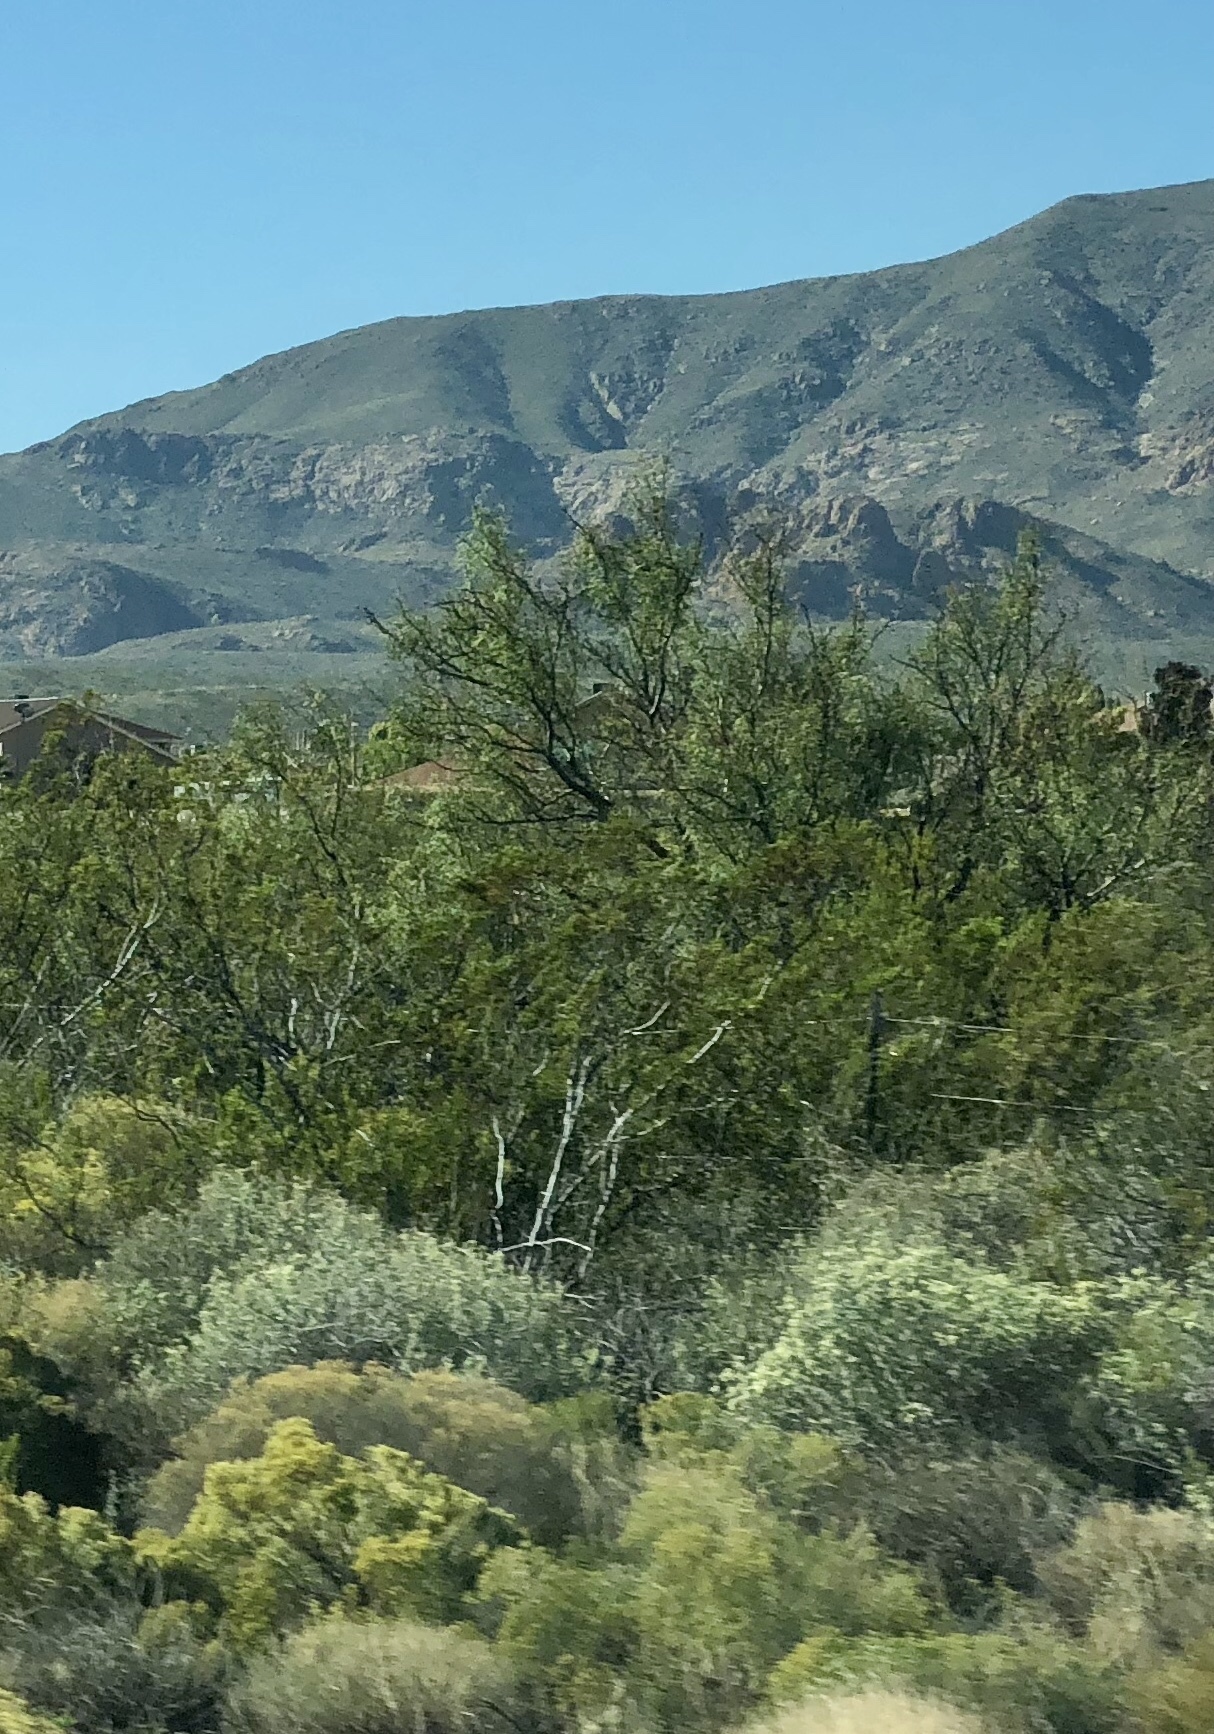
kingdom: Plantae
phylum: Tracheophyta
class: Magnoliopsida
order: Zygophyllales
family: Zygophyllaceae
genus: Larrea
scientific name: Larrea tridentata
